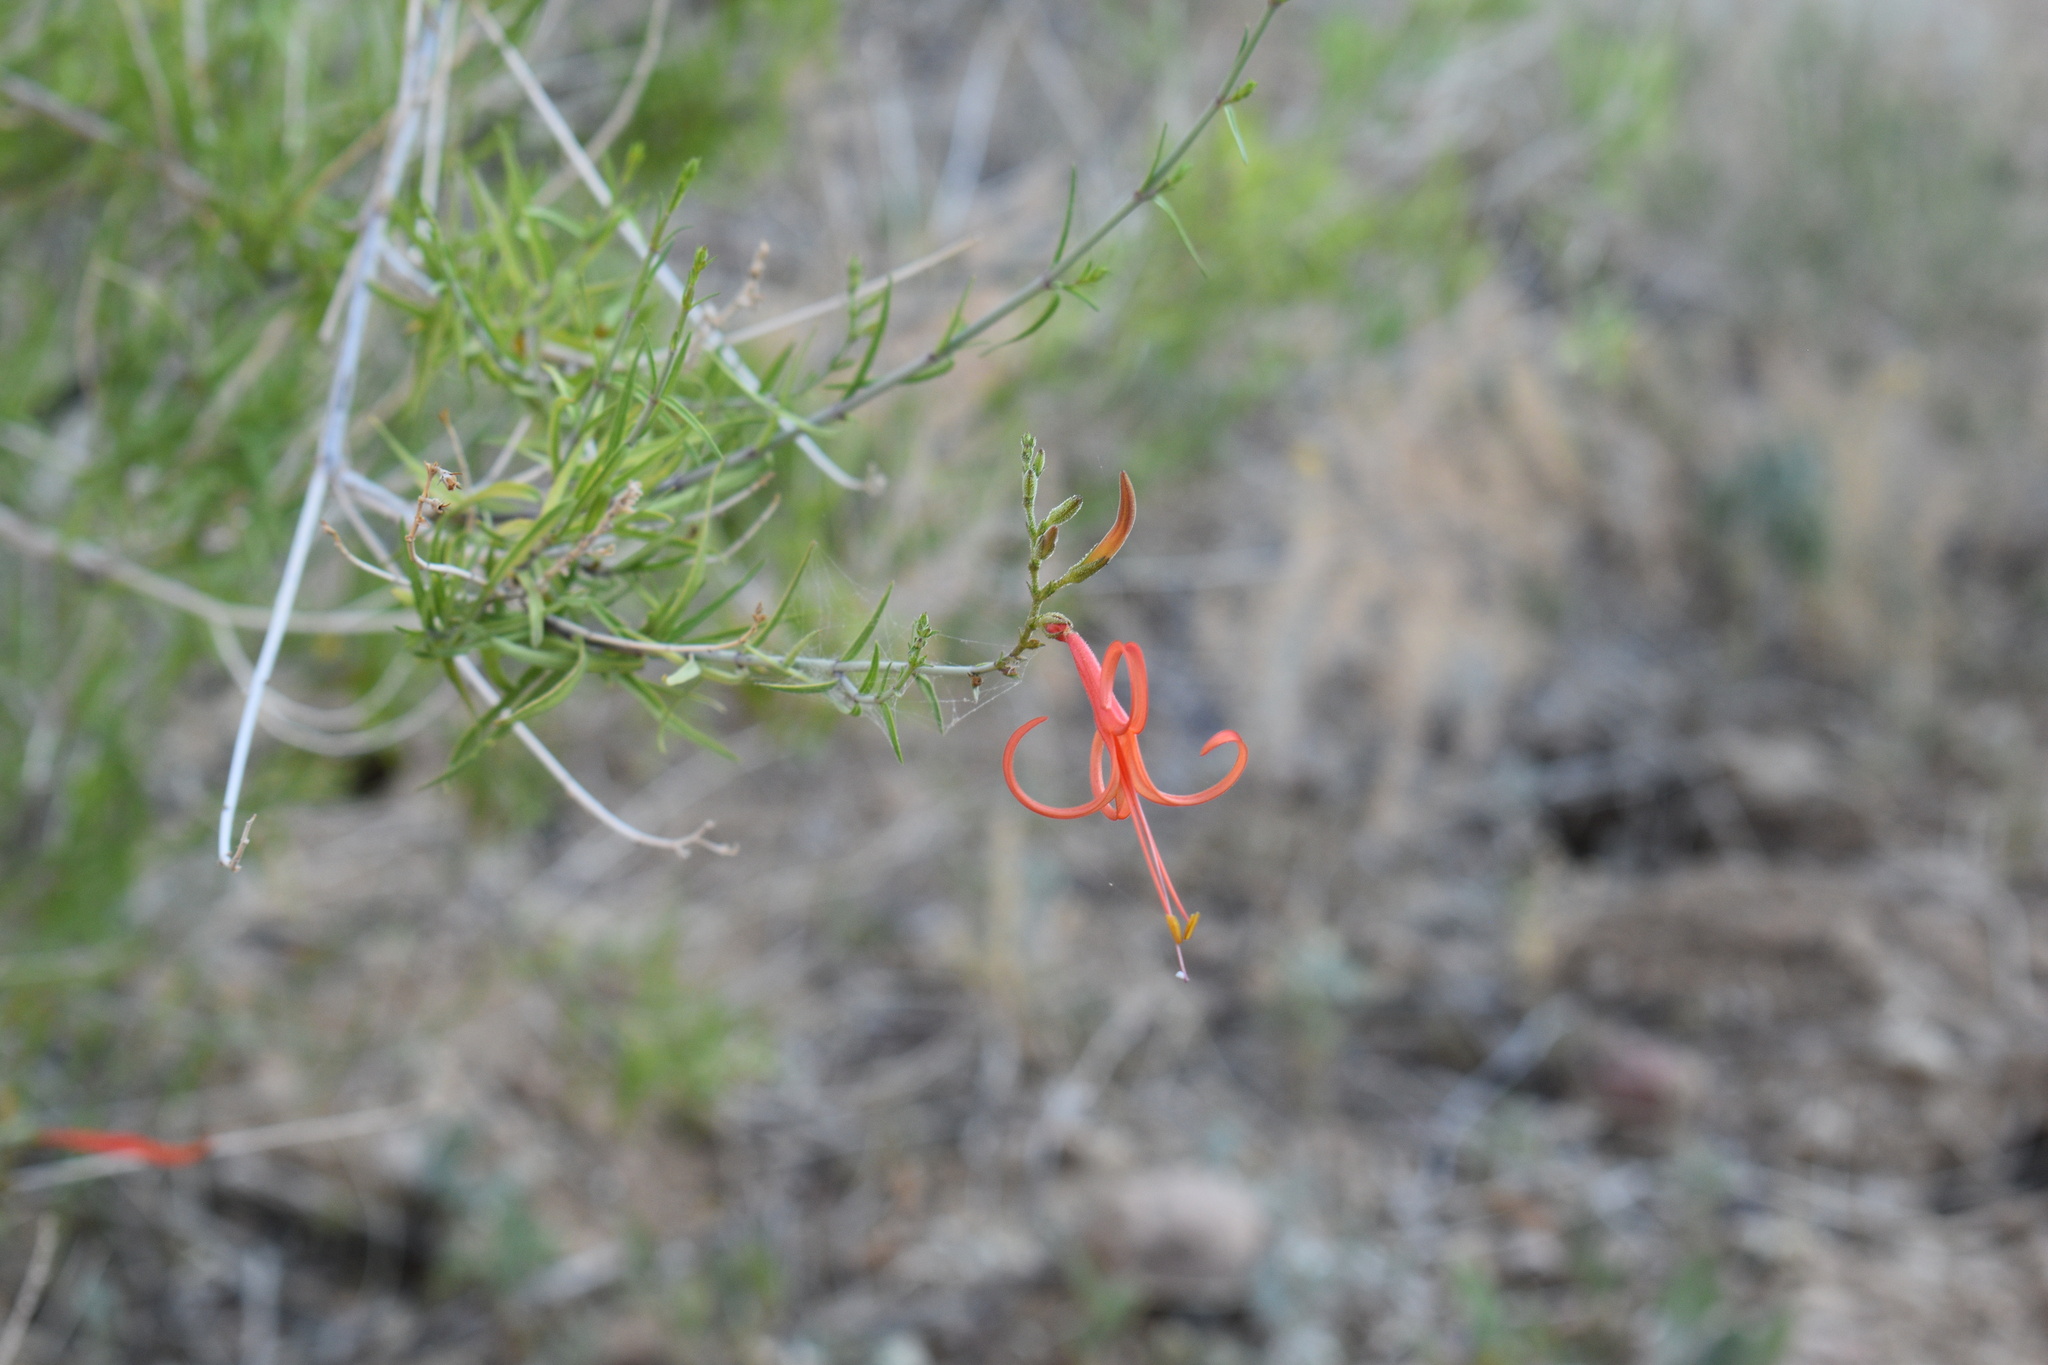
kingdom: Plantae
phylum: Tracheophyta
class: Magnoliopsida
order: Lamiales
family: Acanthaceae
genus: Anisacanthus
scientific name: Anisacanthus linearis
